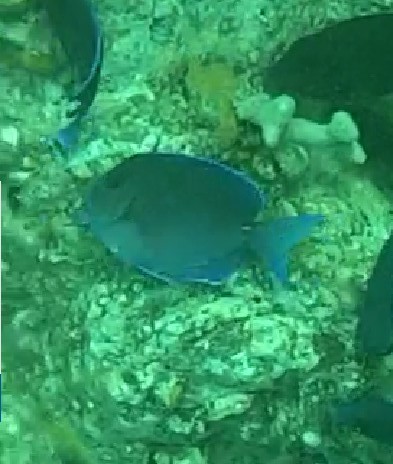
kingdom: Animalia
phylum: Chordata
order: Perciformes
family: Acanthuridae
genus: Acanthurus
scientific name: Acanthurus coeruleus
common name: Blue tang
